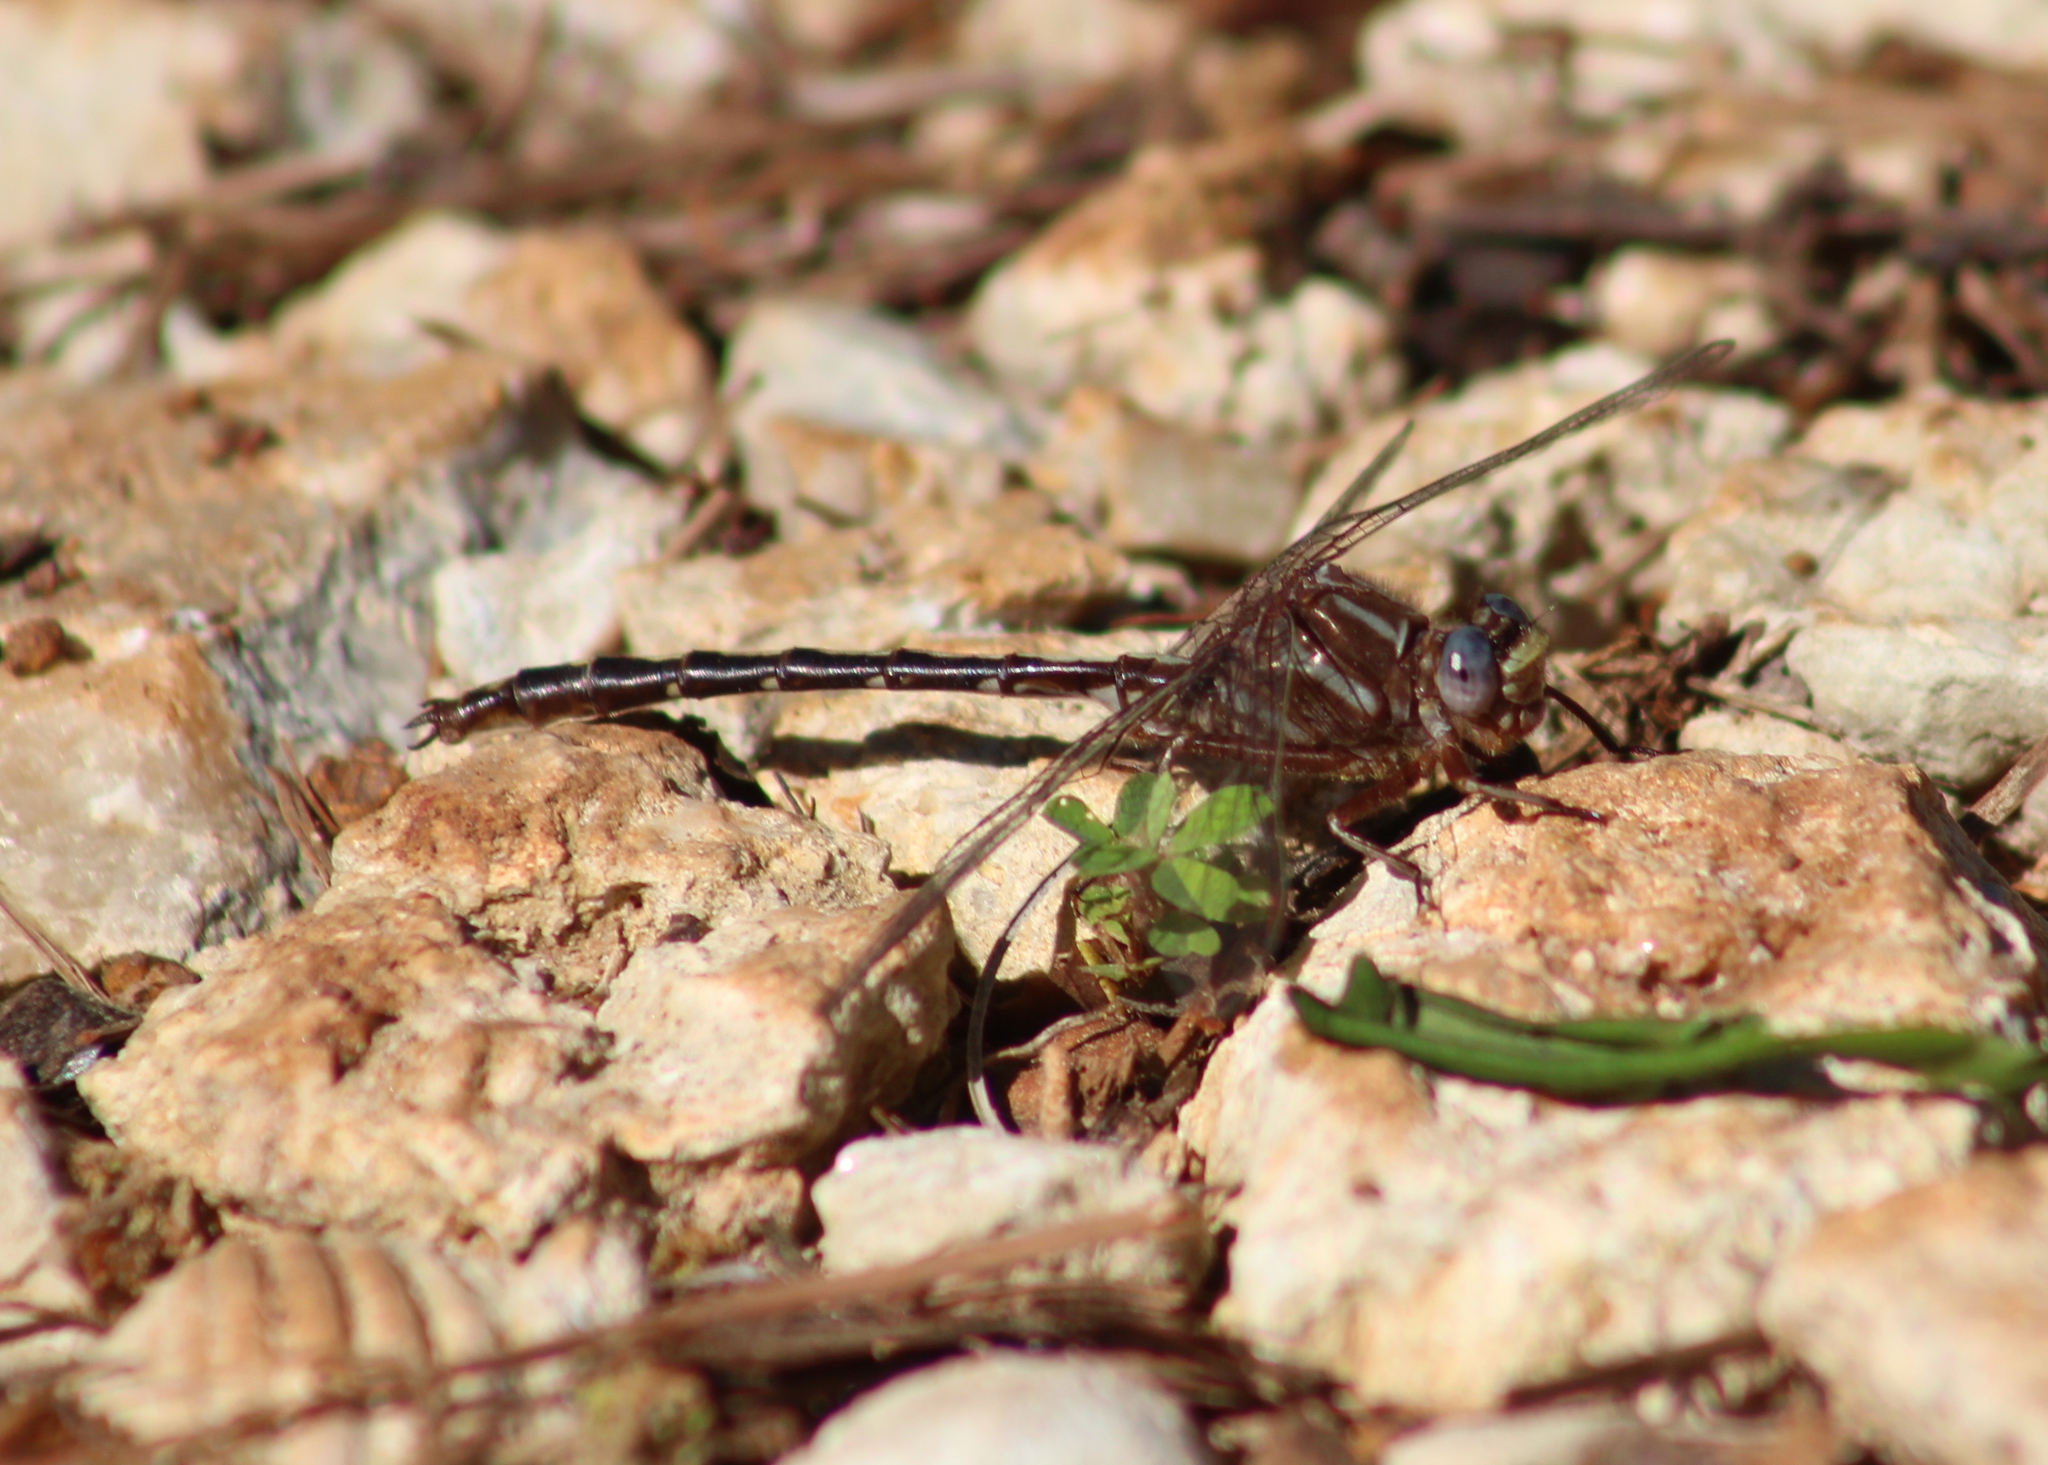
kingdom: Animalia
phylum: Arthropoda
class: Insecta
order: Odonata
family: Gomphidae
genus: Phanogomphus
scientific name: Phanogomphus lividus
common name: Ashy clubtail
